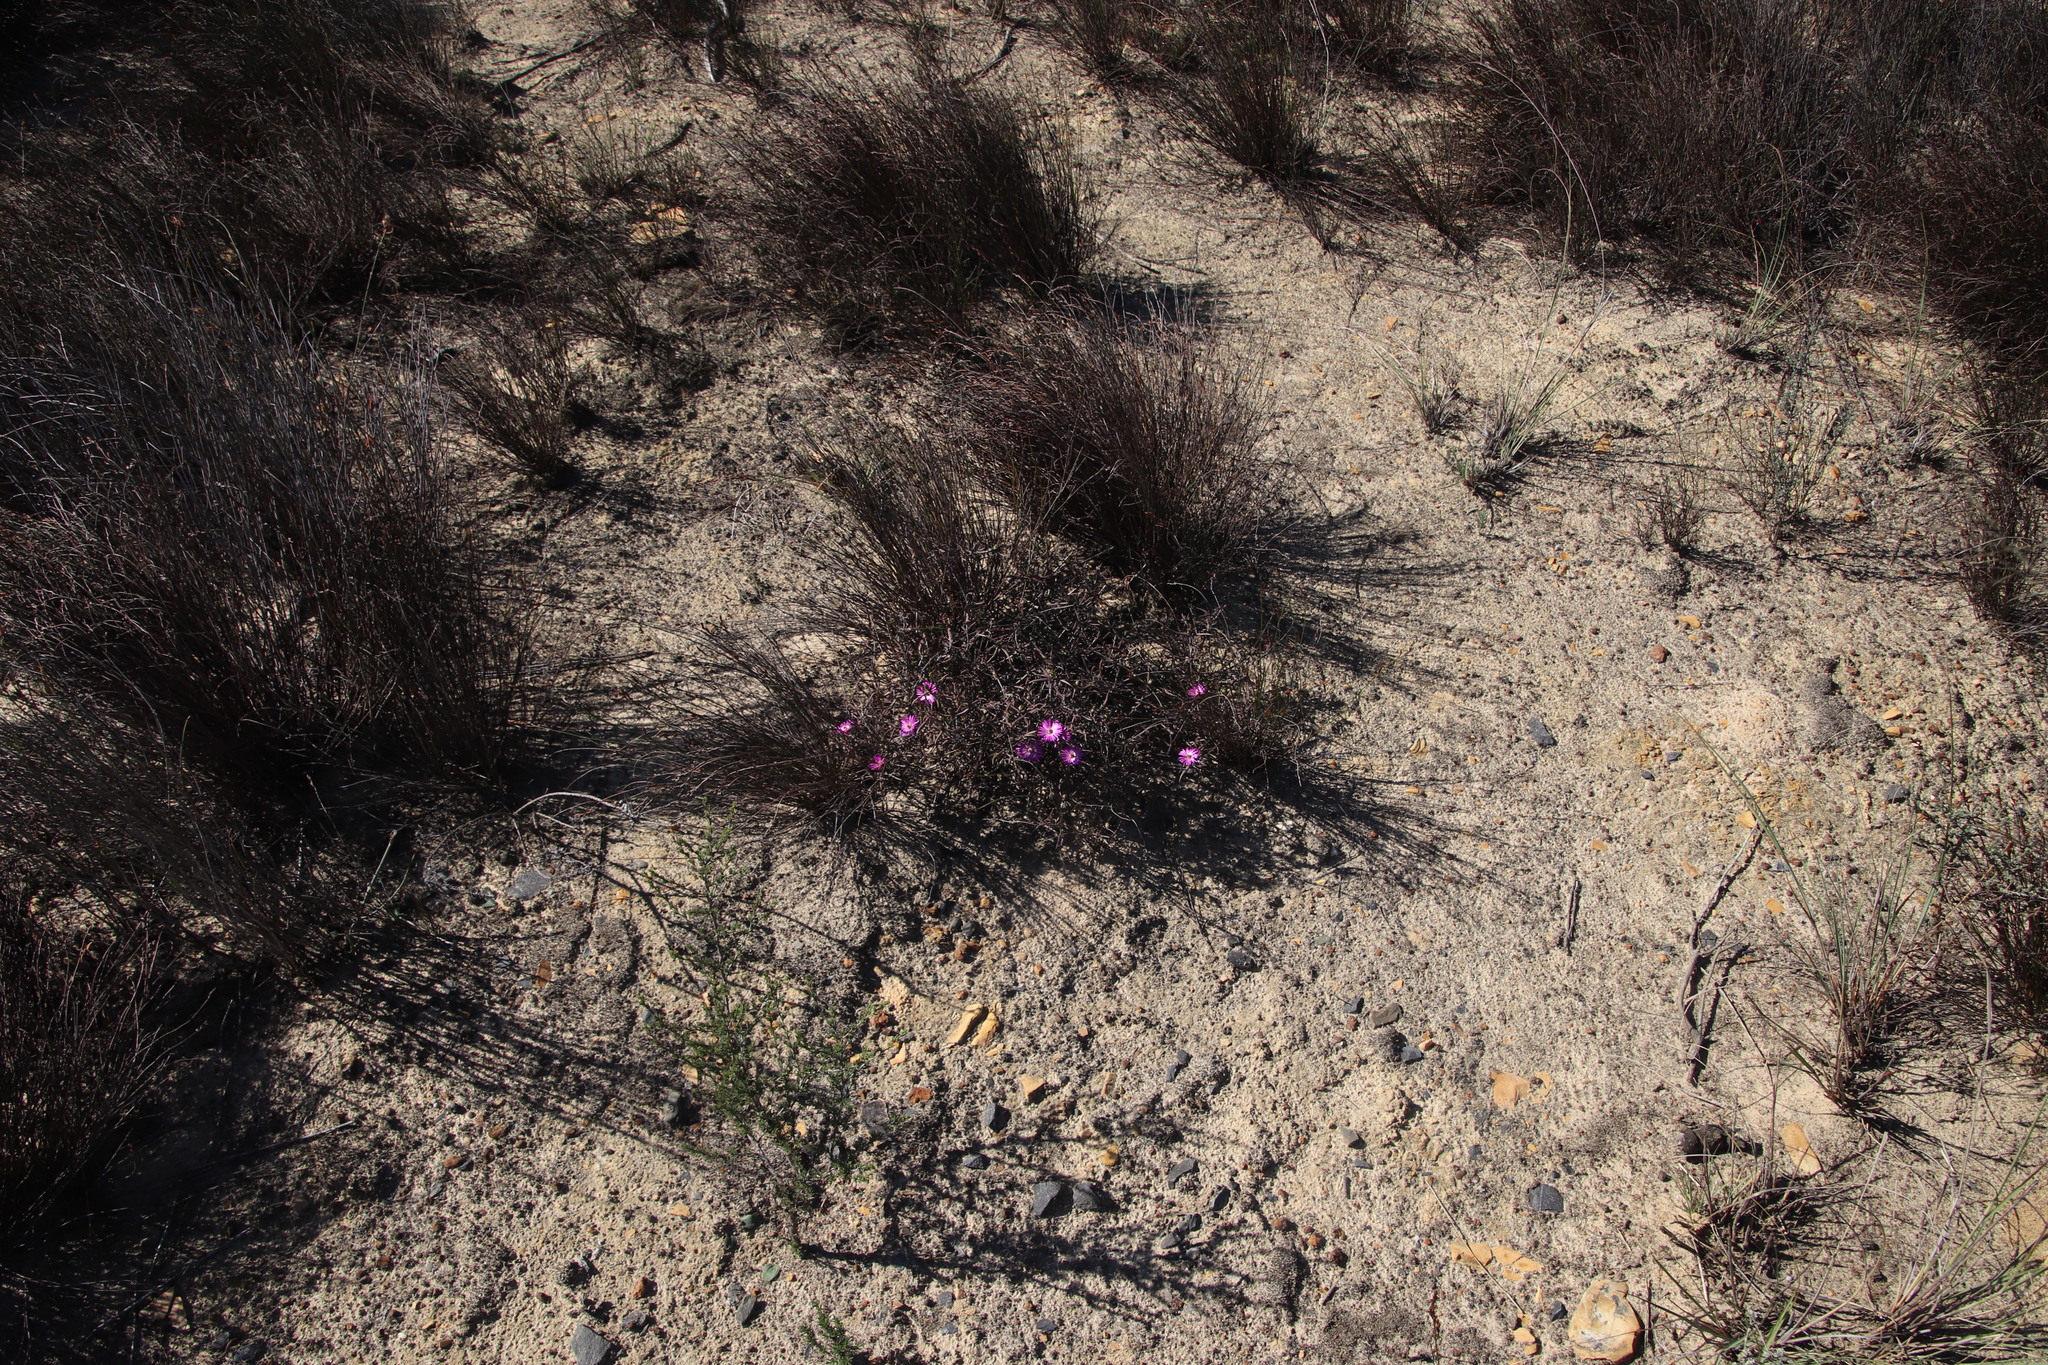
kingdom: Plantae
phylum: Tracheophyta
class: Magnoliopsida
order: Caryophyllales
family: Aizoaceae
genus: Lampranthus
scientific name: Lampranthus spiniformis
